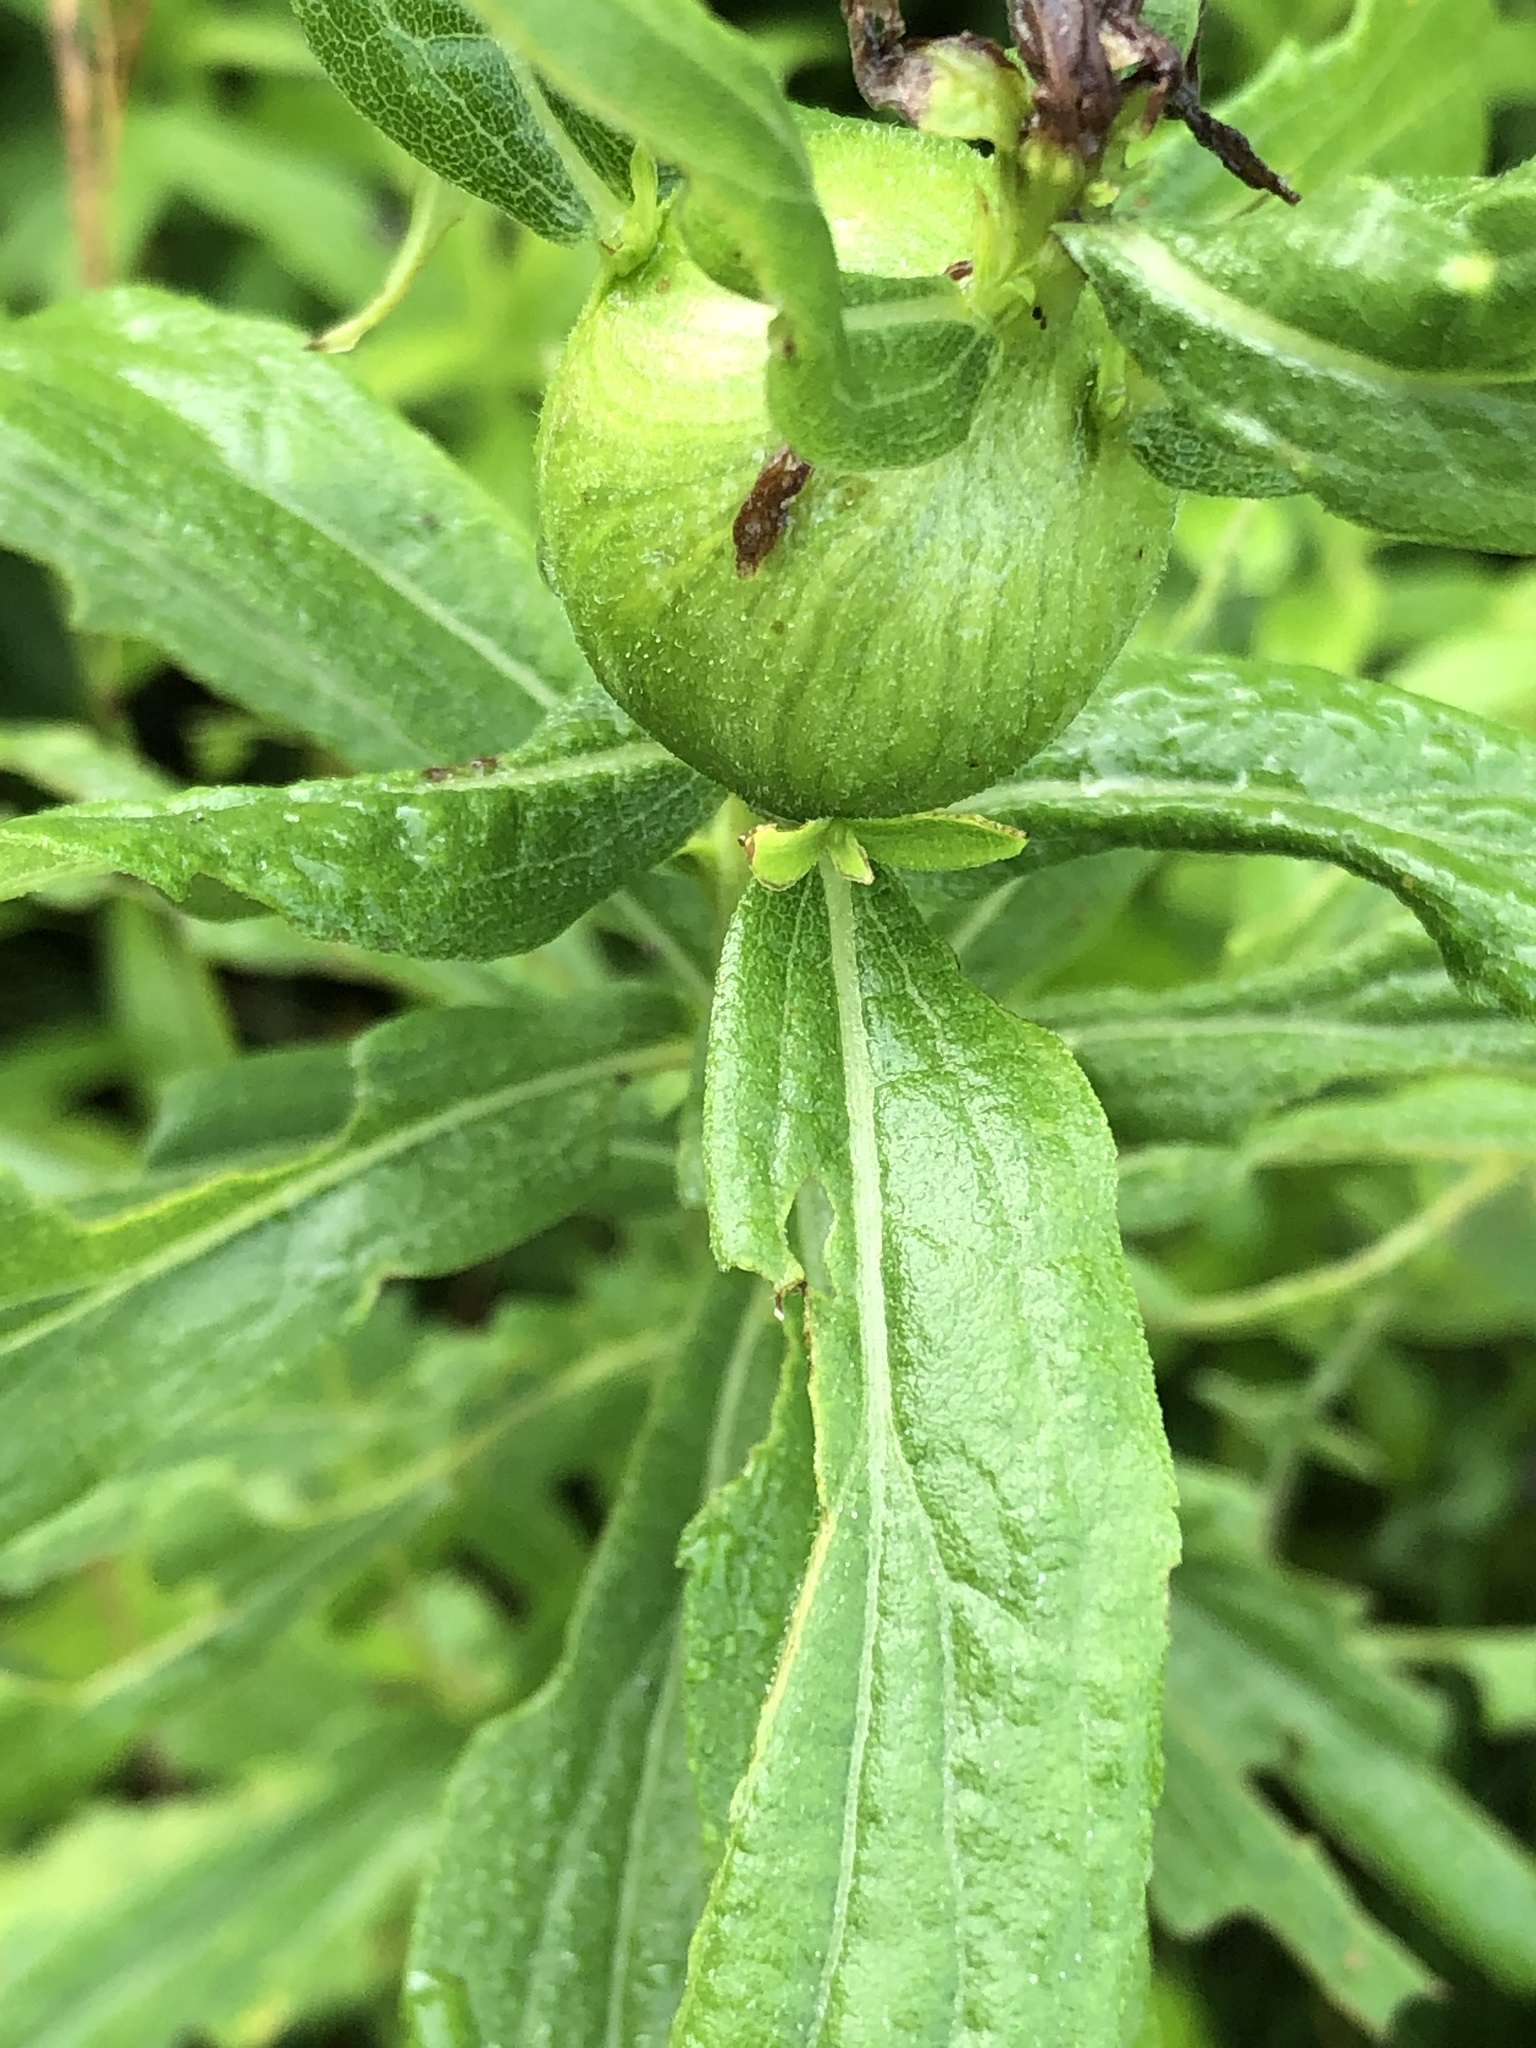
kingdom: Animalia
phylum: Arthropoda
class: Insecta
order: Diptera
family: Tephritidae
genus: Eurosta
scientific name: Eurosta solidaginis
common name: Goldenrod gall fly
